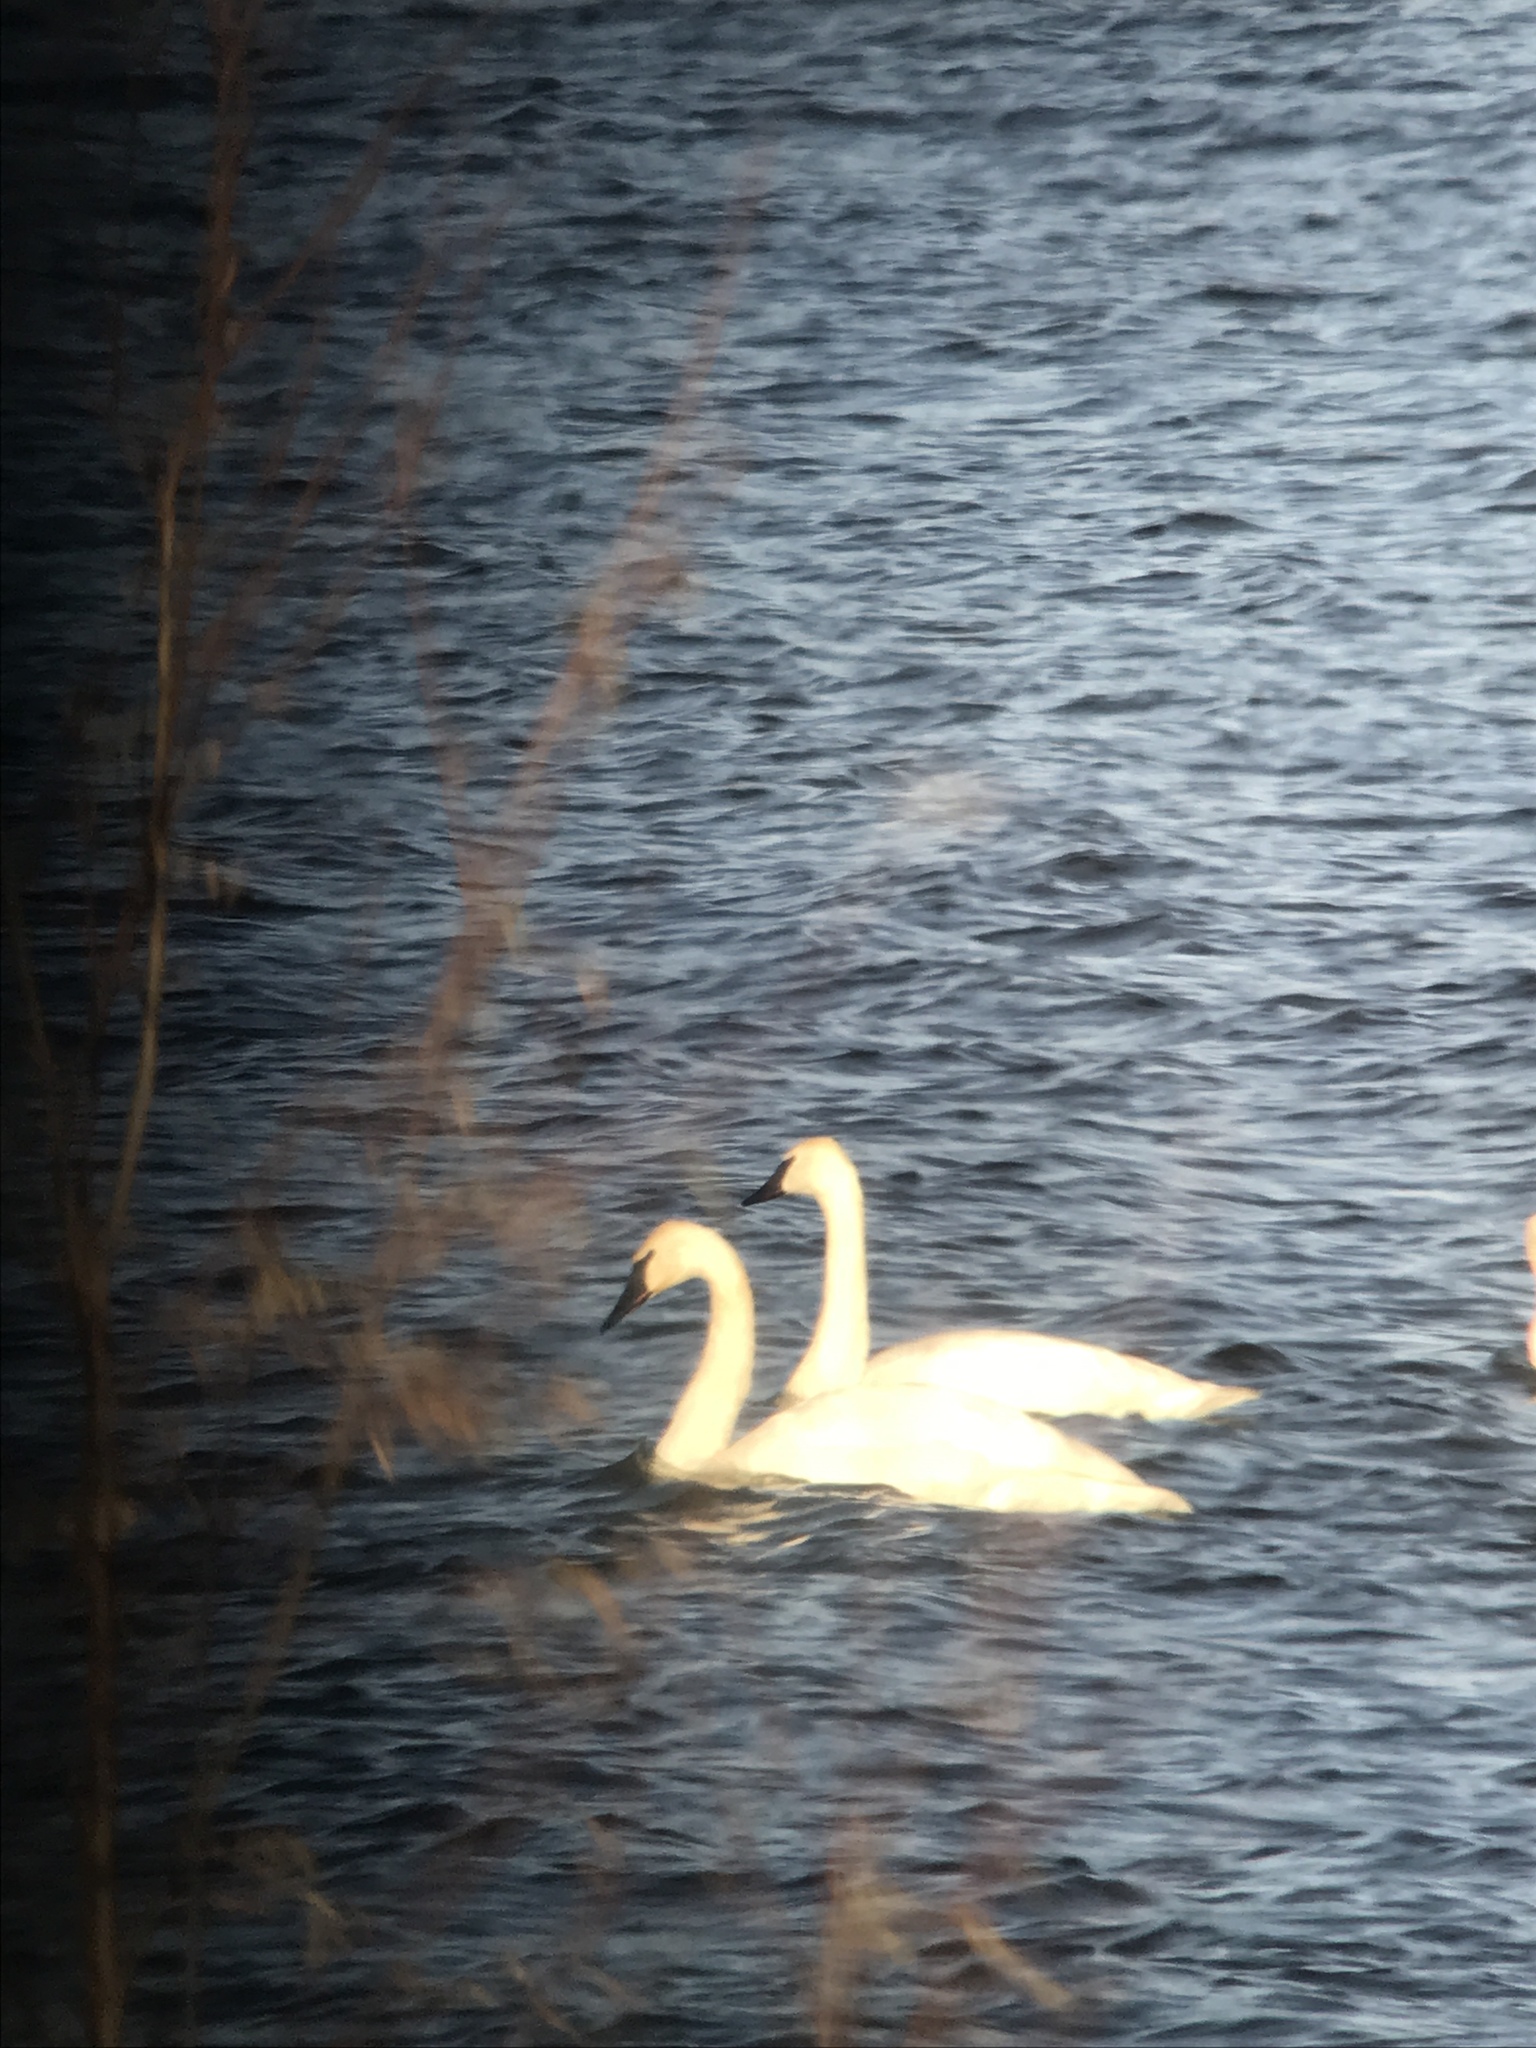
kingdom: Animalia
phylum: Chordata
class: Aves
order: Anseriformes
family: Anatidae
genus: Cygnus
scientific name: Cygnus buccinator
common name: Trumpeter swan
